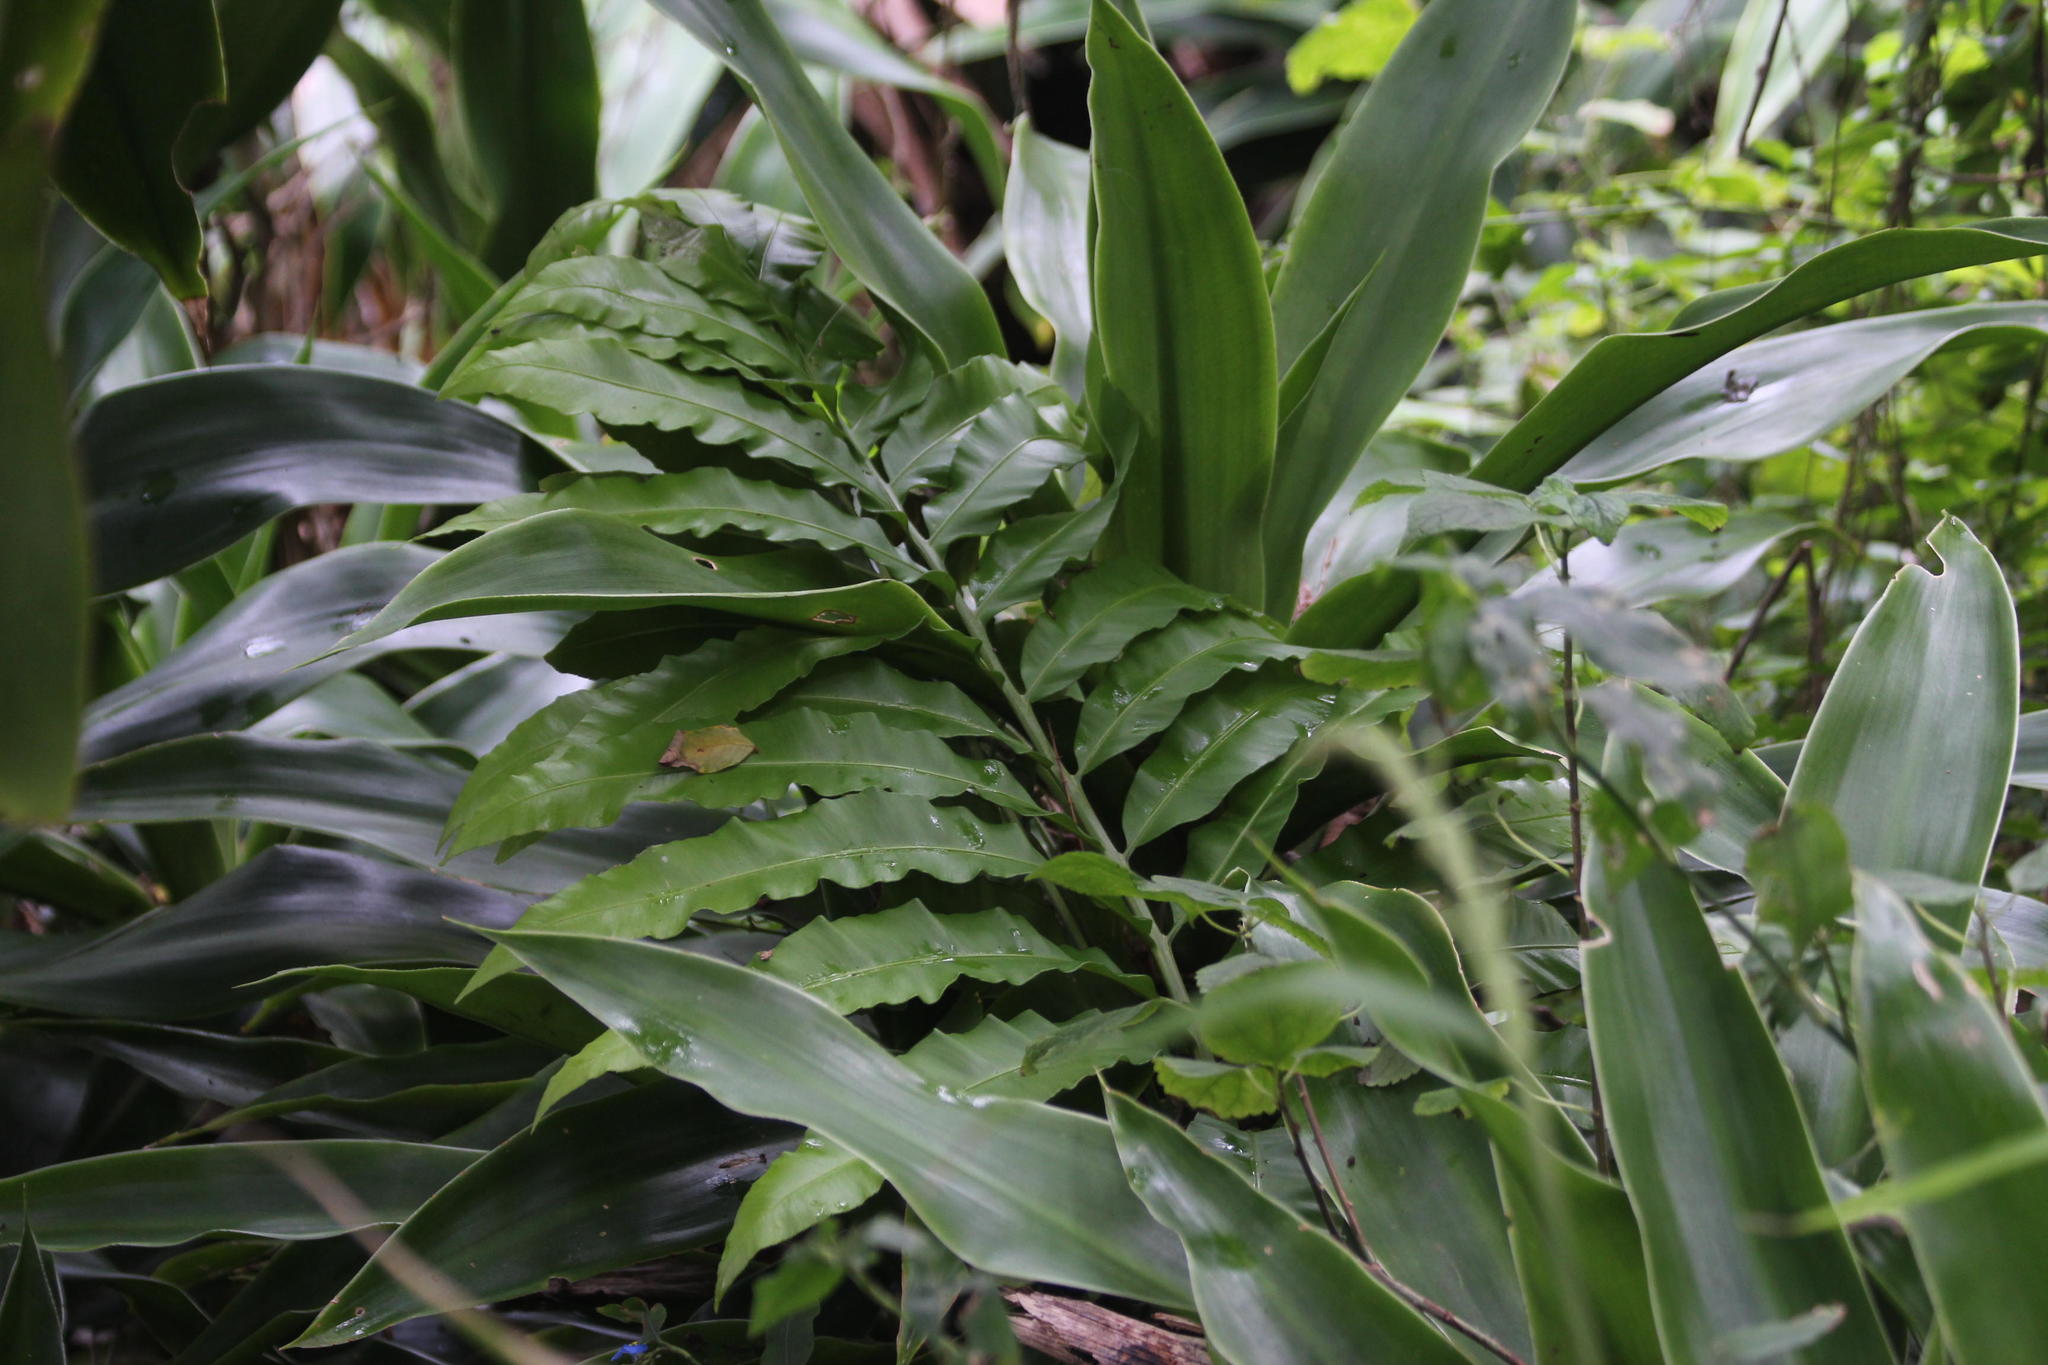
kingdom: Plantae
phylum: Tracheophyta
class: Cycadopsida
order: Cycadales
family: Zamiaceae
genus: Stangeria
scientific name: Stangeria eriopus
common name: Natal grass cycad
